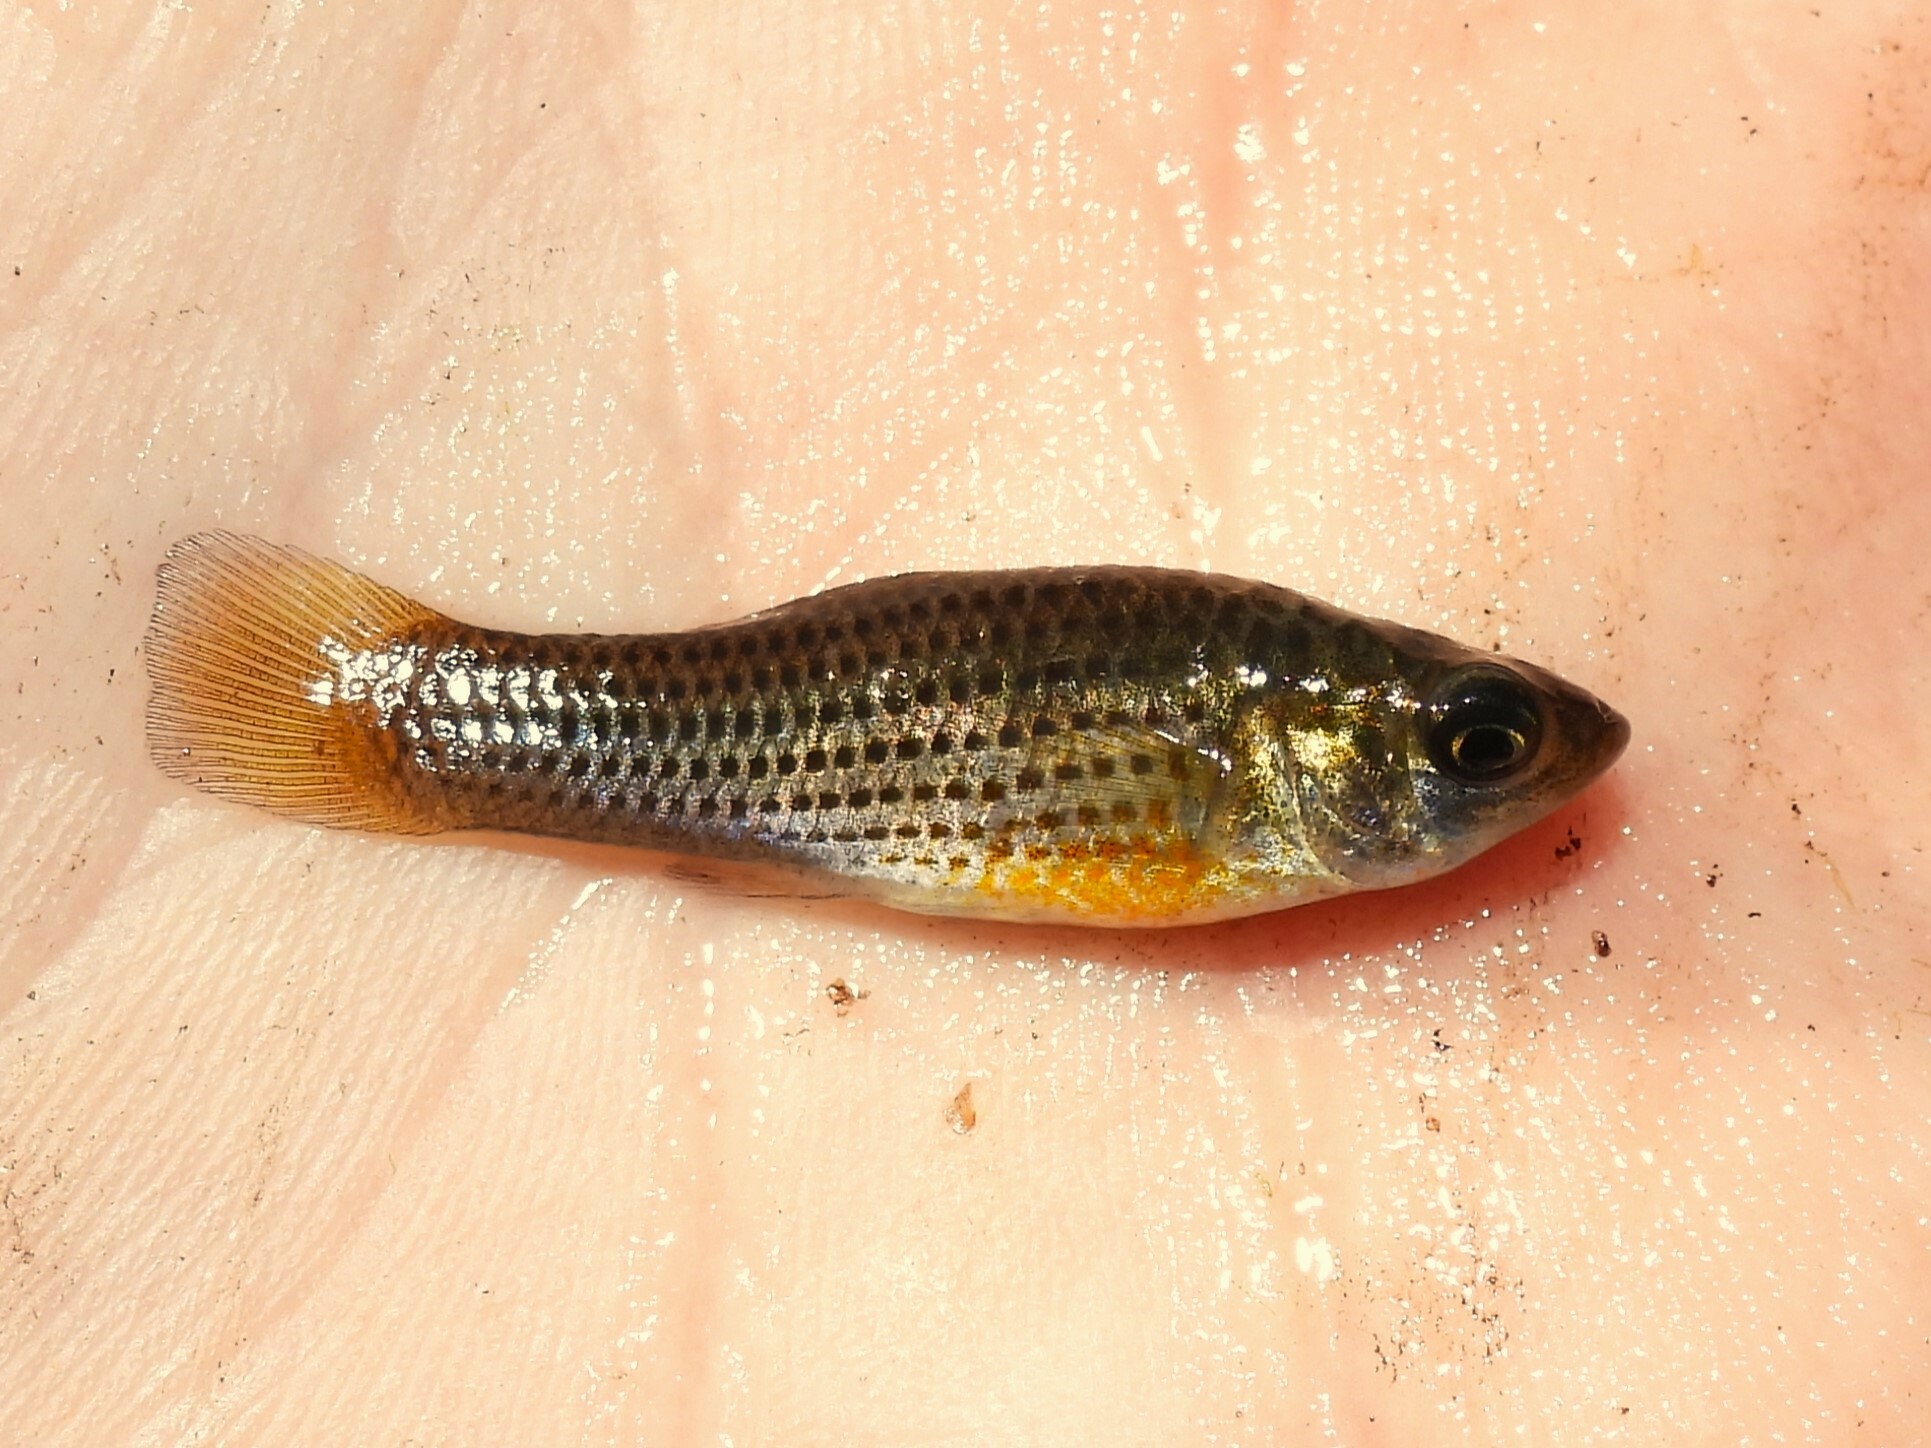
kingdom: Animalia
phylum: Chordata
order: Cyprinodontiformes
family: Poeciliidae
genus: Poecilia
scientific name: Poecilia latipinna
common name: Sailfin molly
